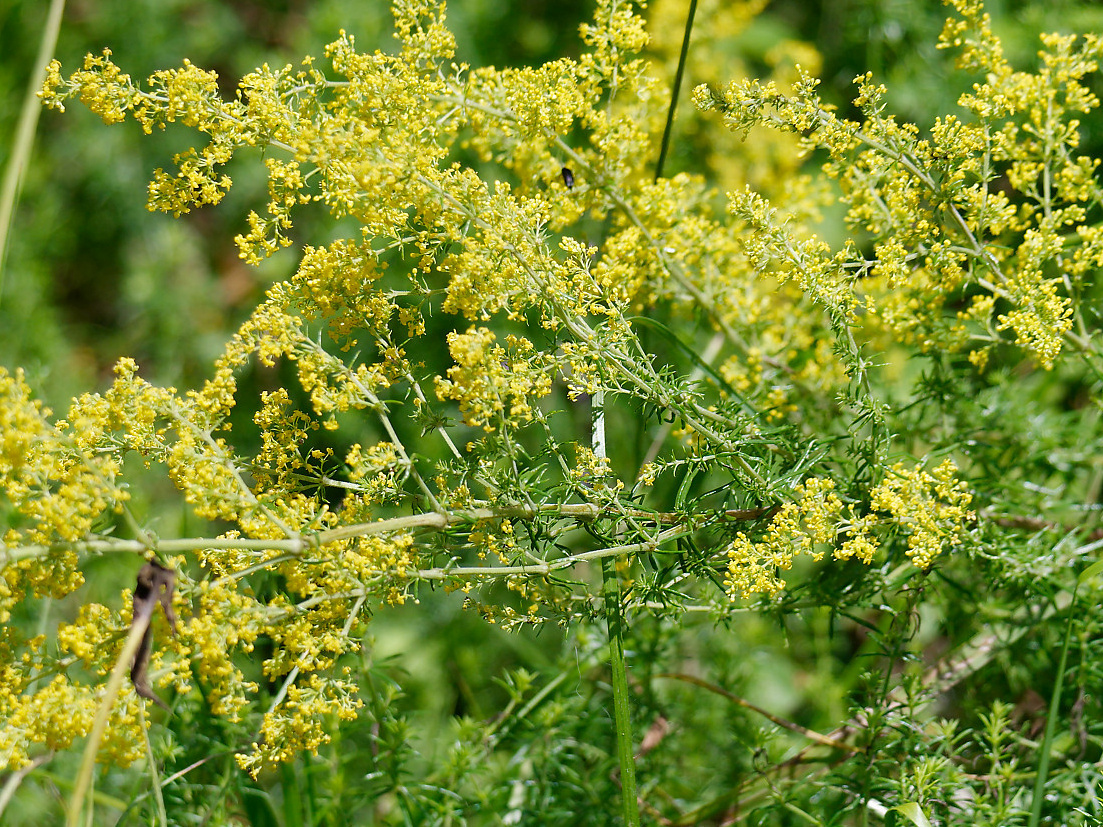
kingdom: Plantae
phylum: Tracheophyta
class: Magnoliopsida
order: Gentianales
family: Rubiaceae
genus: Galium
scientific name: Galium verum
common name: Lady's bedstraw
